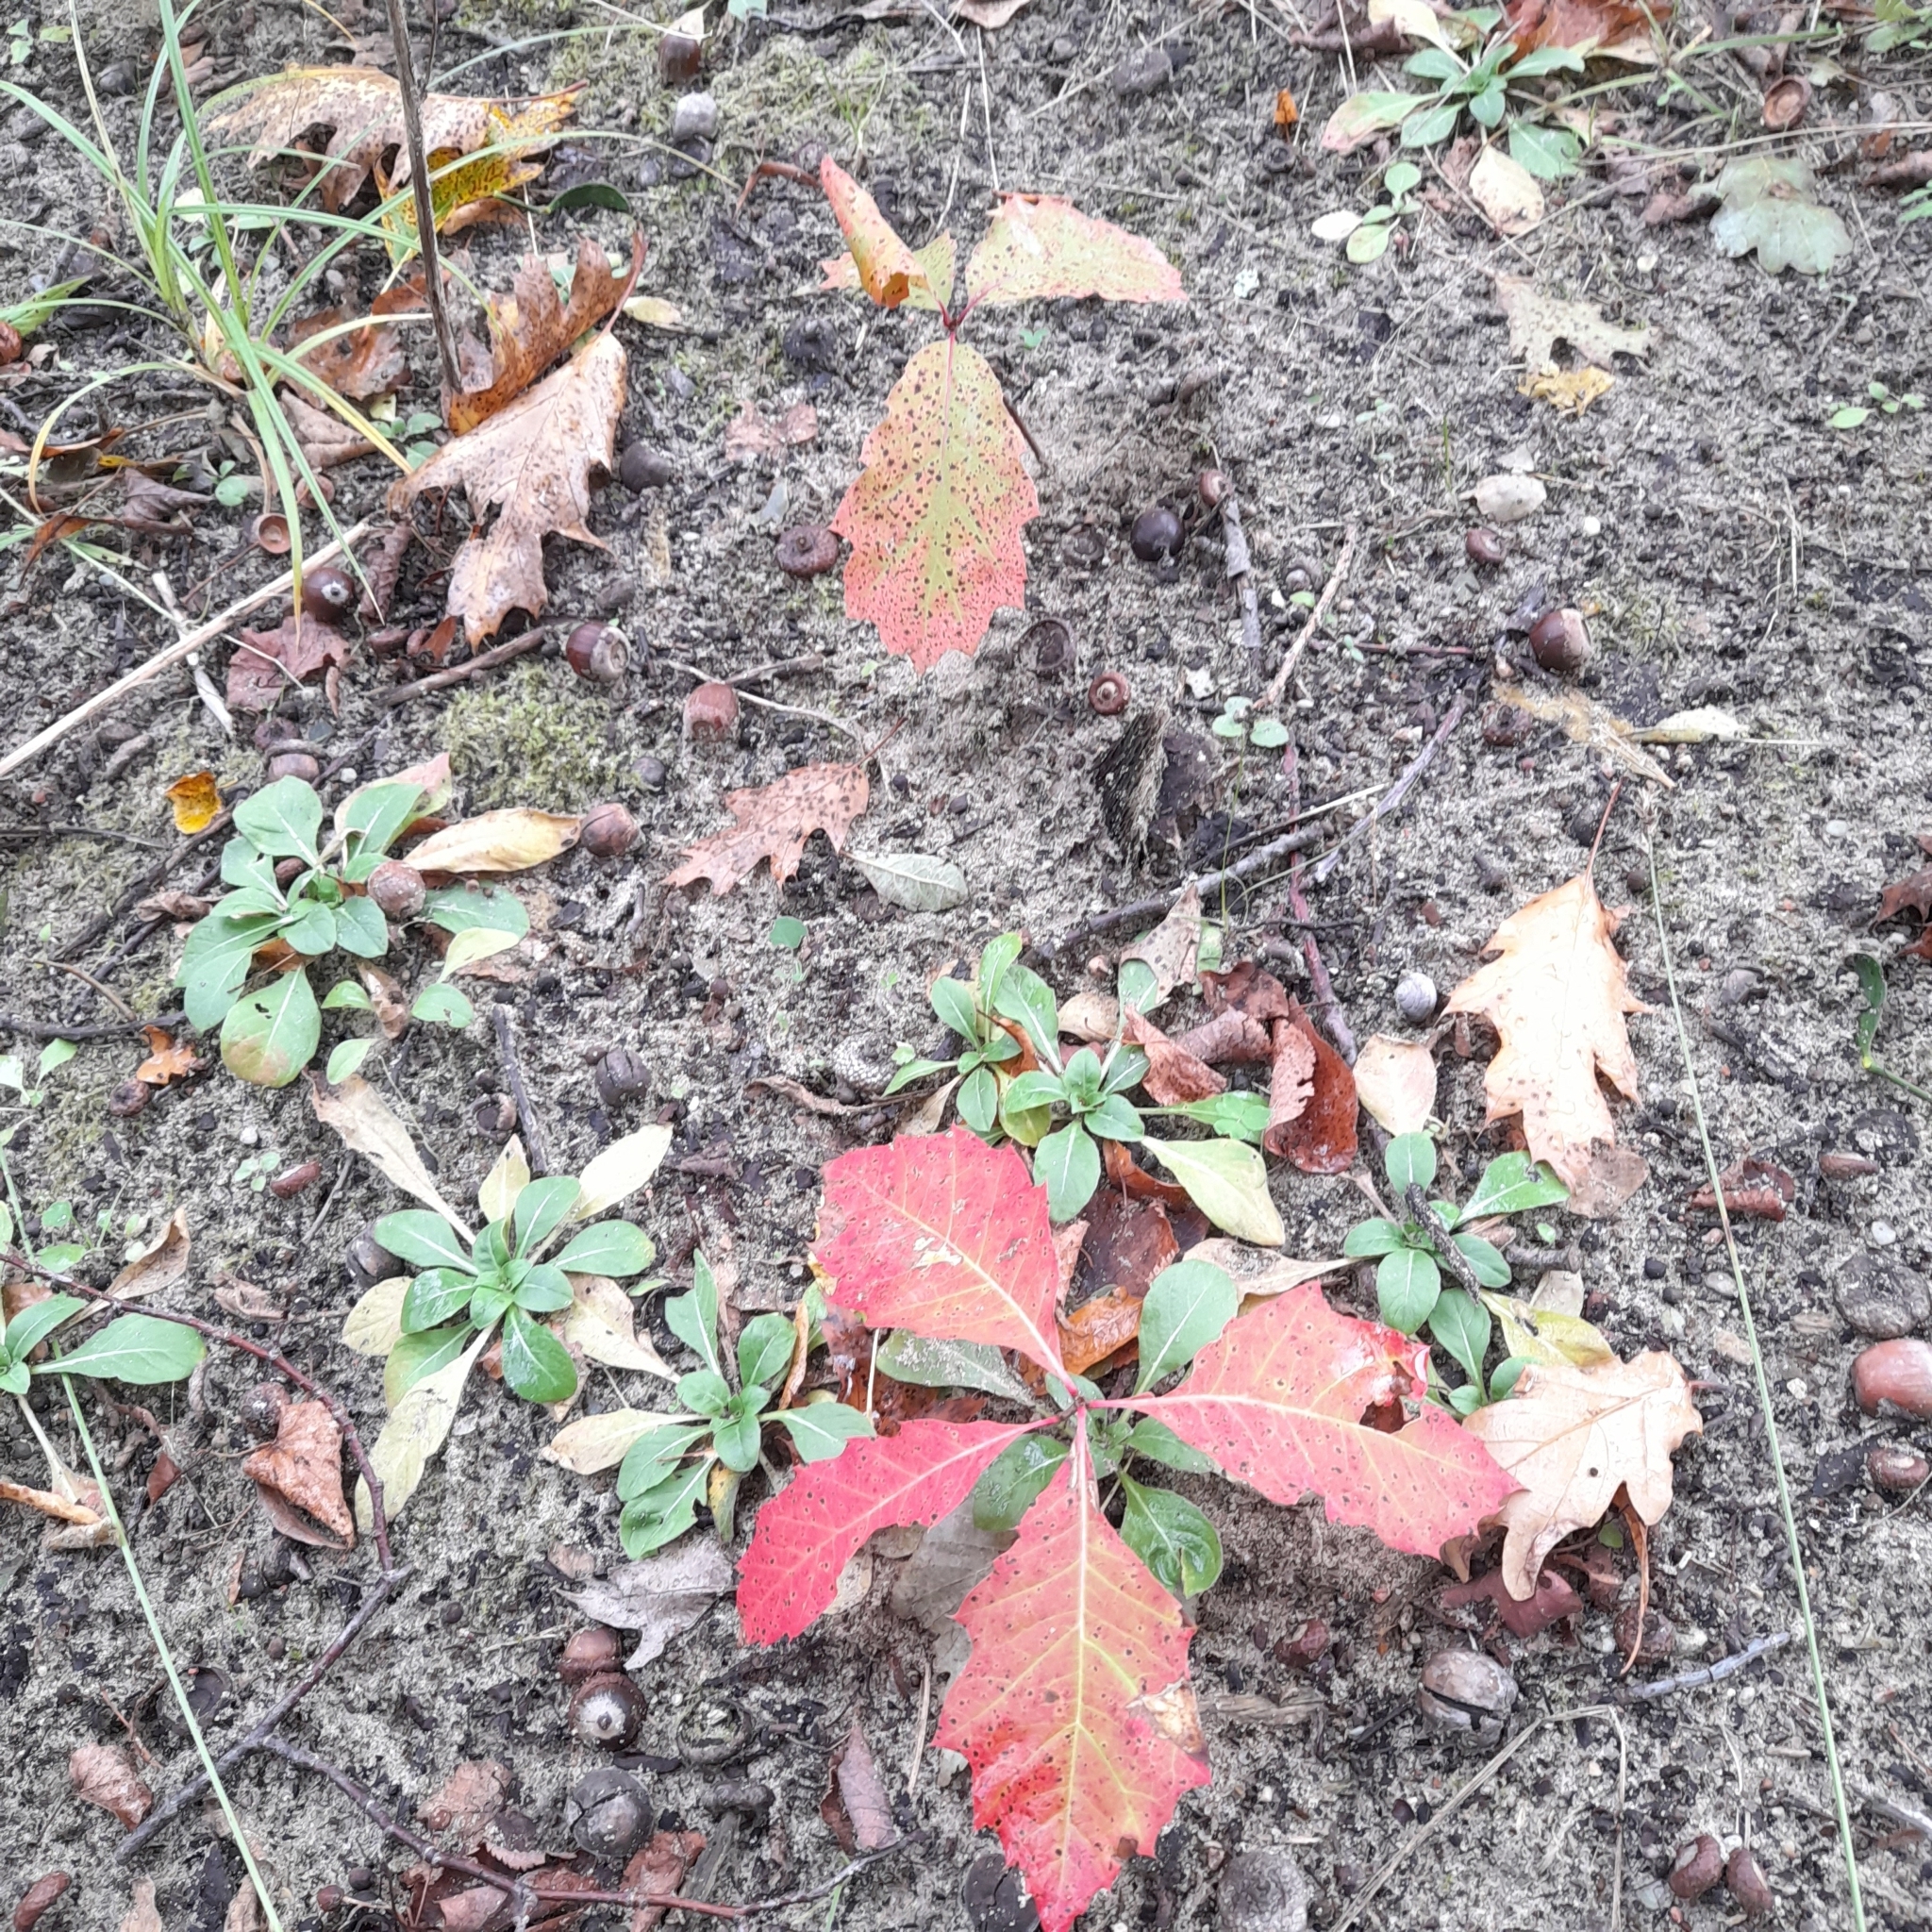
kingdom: Plantae
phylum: Tracheophyta
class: Magnoliopsida
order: Fagales
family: Fagaceae
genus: Quercus
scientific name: Quercus rubra
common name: Red oak
